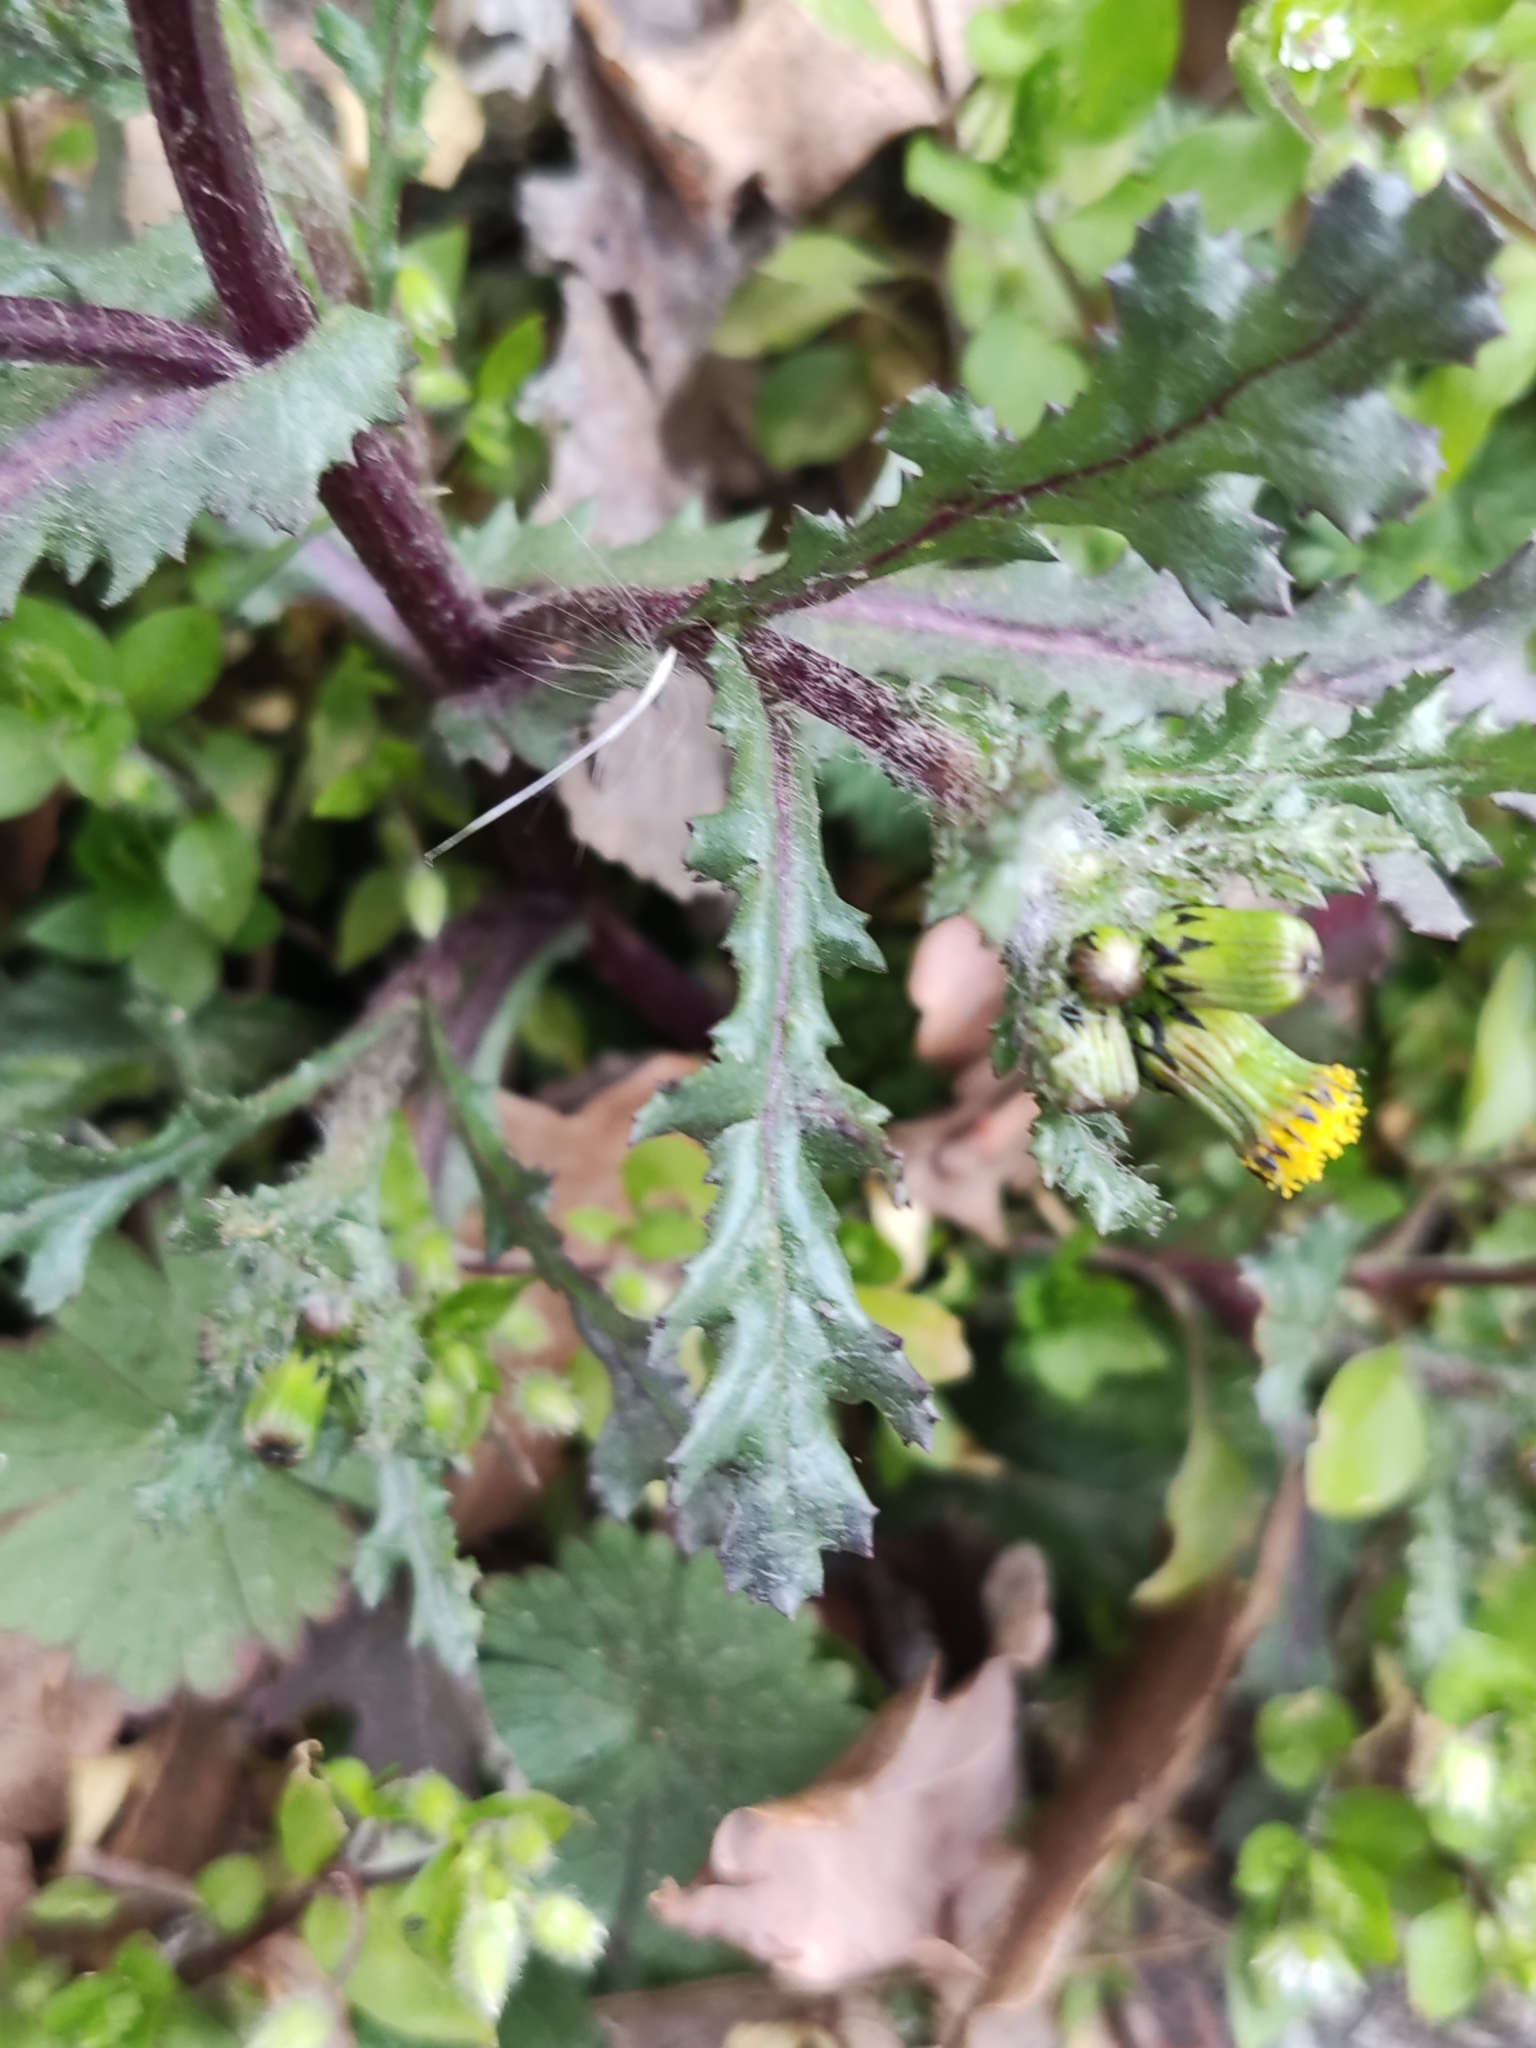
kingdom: Plantae
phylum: Tracheophyta
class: Magnoliopsida
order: Asterales
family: Asteraceae
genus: Senecio
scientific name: Senecio vulgaris
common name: Old-man-in-the-spring
